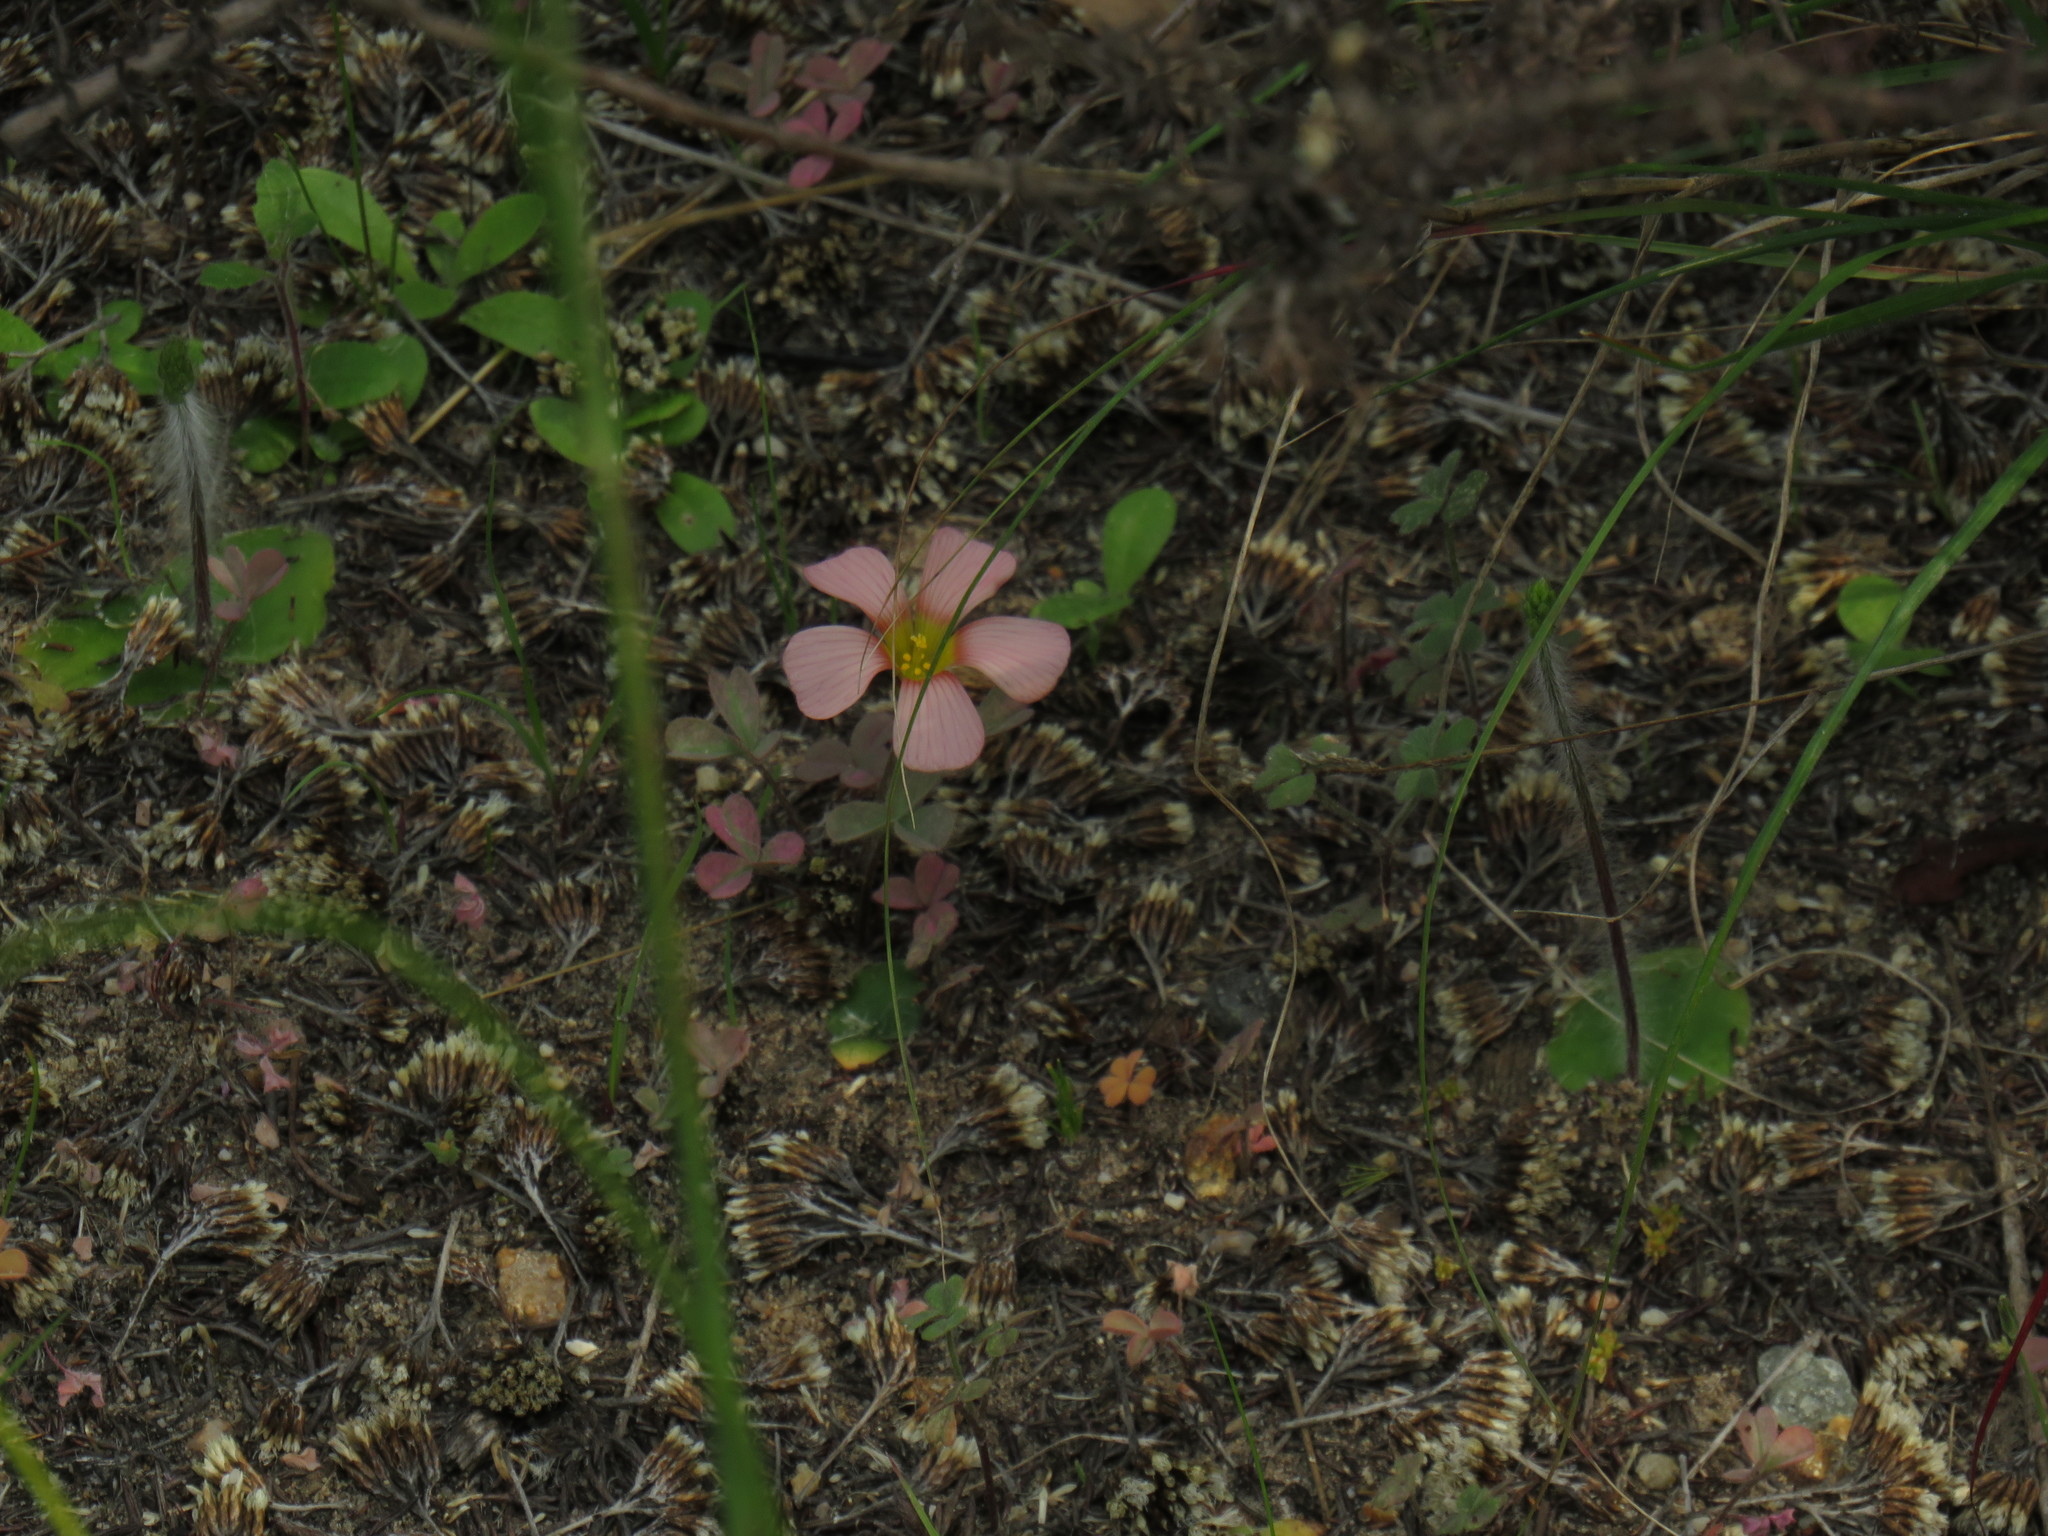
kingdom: Plantae
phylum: Tracheophyta
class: Magnoliopsida
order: Oxalidales
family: Oxalidaceae
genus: Oxalis
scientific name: Oxalis obtusa
